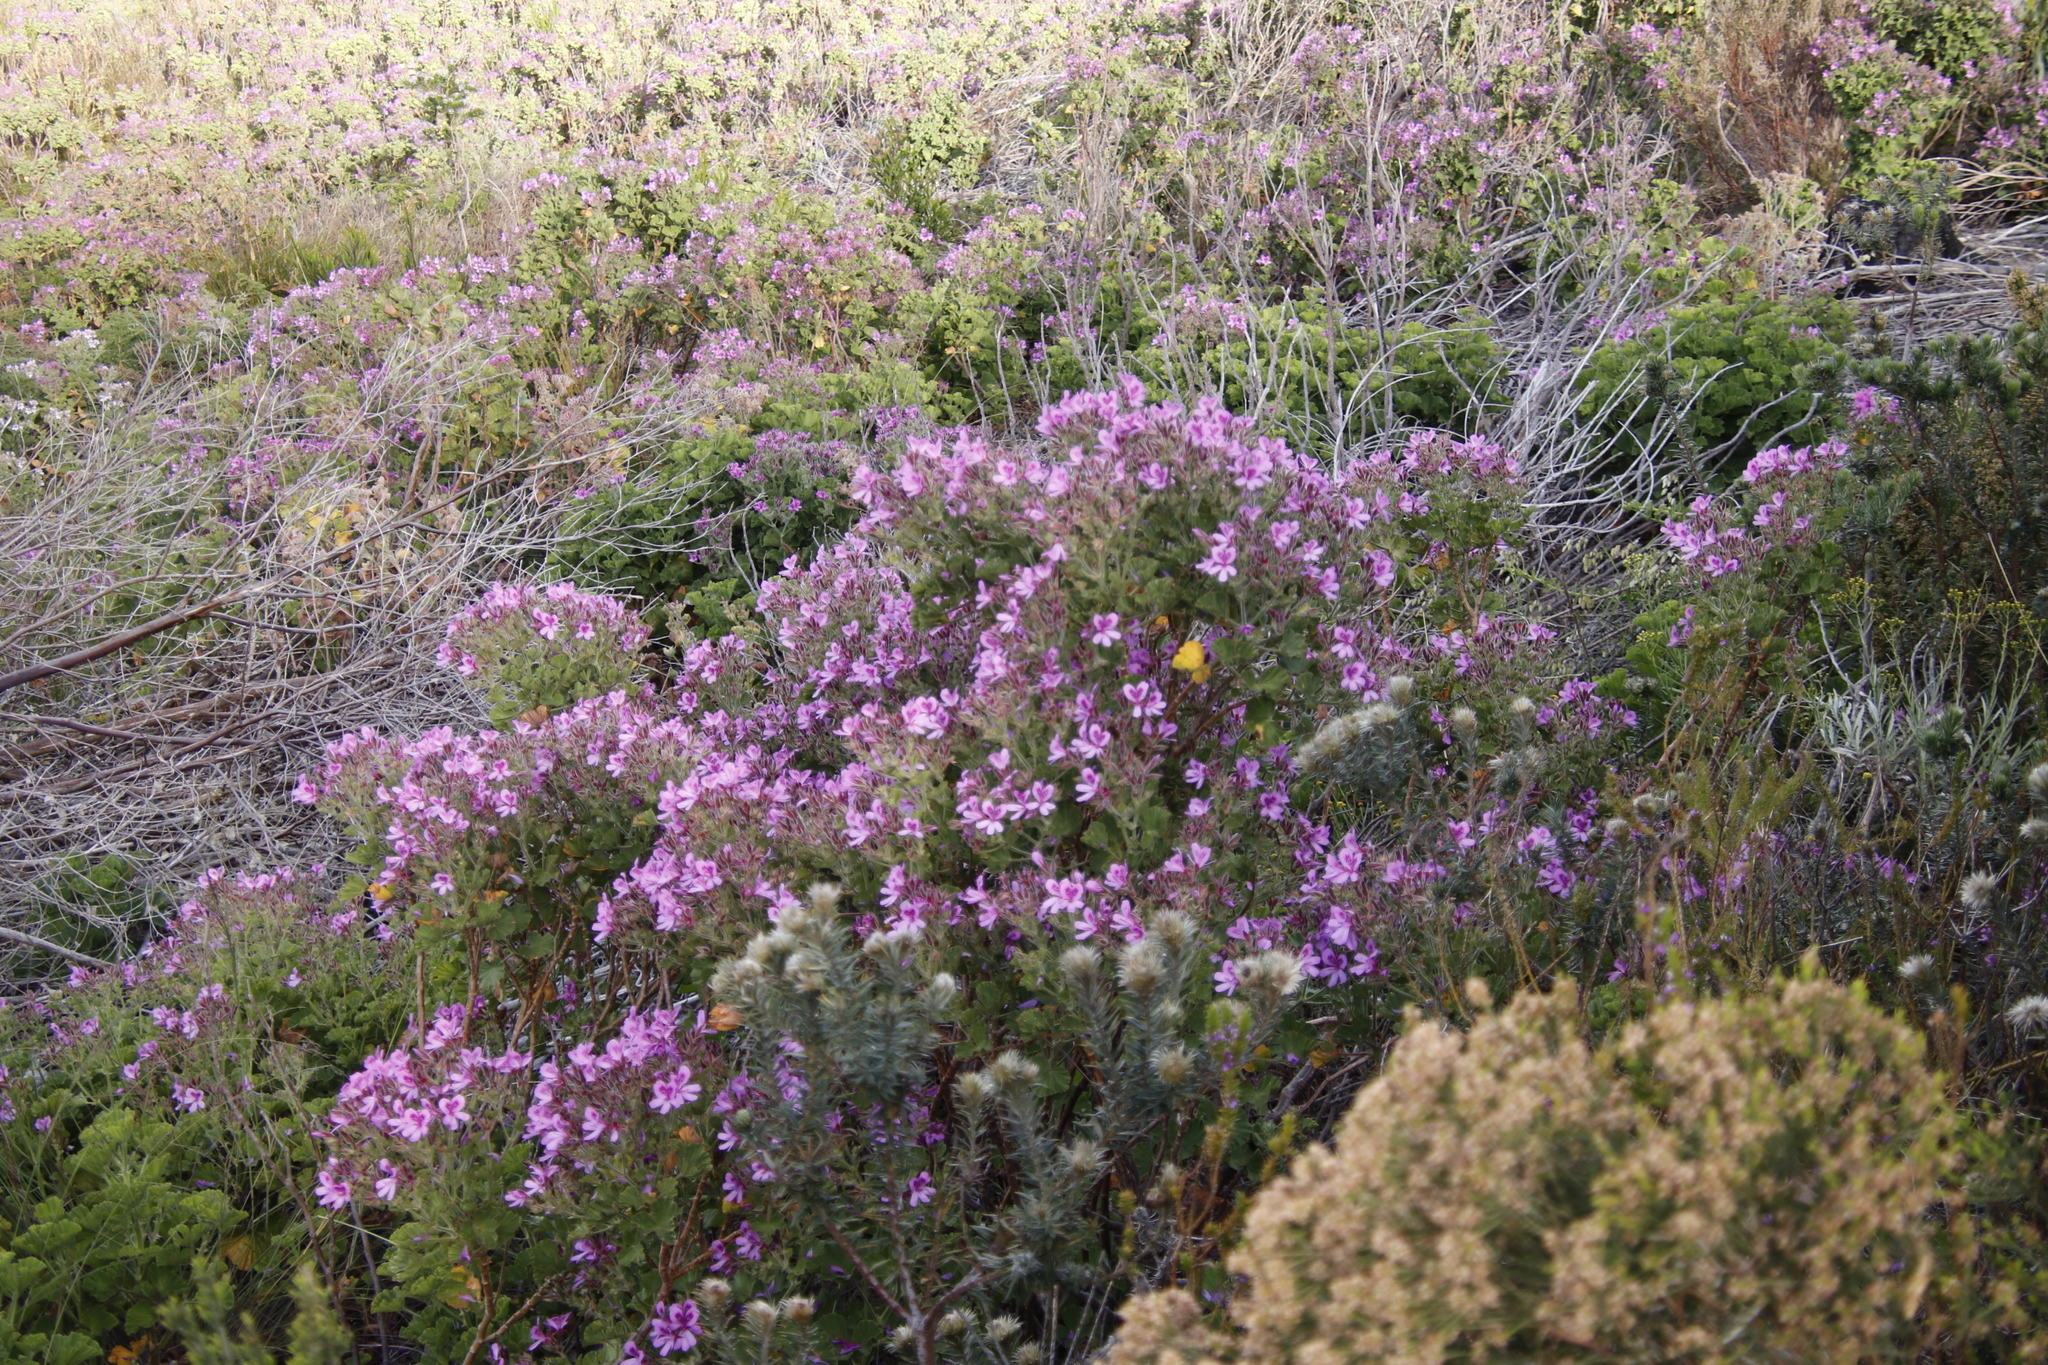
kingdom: Plantae
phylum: Tracheophyta
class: Magnoliopsida
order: Geraniales
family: Geraniaceae
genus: Pelargonium
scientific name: Pelargonium cucullatum
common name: Tree pelargonium
